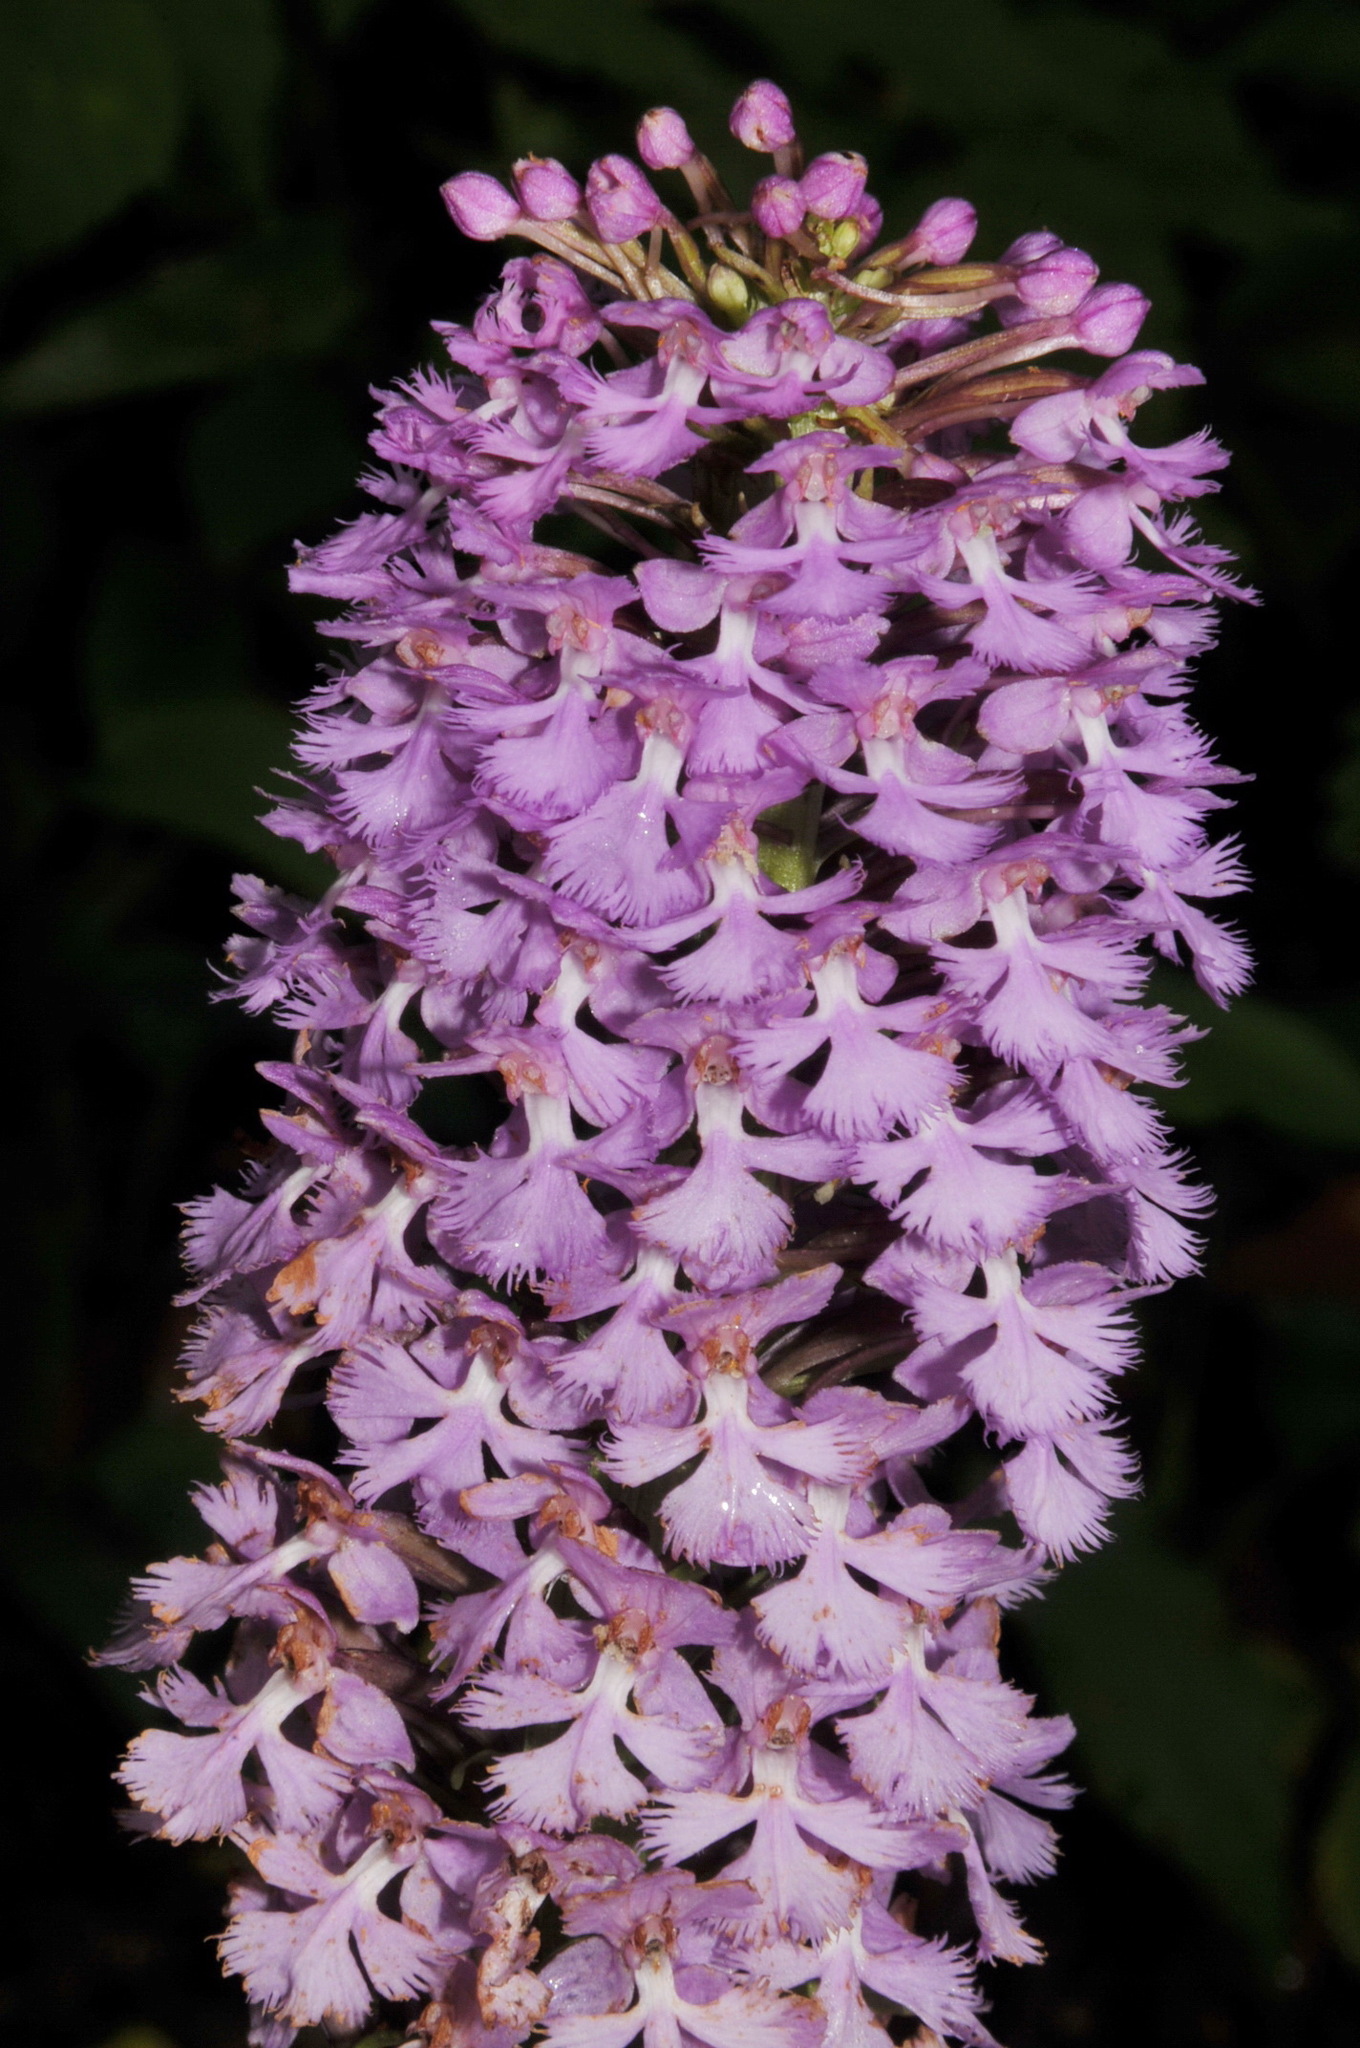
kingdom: Plantae
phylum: Tracheophyta
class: Liliopsida
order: Asparagales
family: Orchidaceae
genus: Platanthera
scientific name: Platanthera psycodes
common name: Lesser purple fringed orchid
